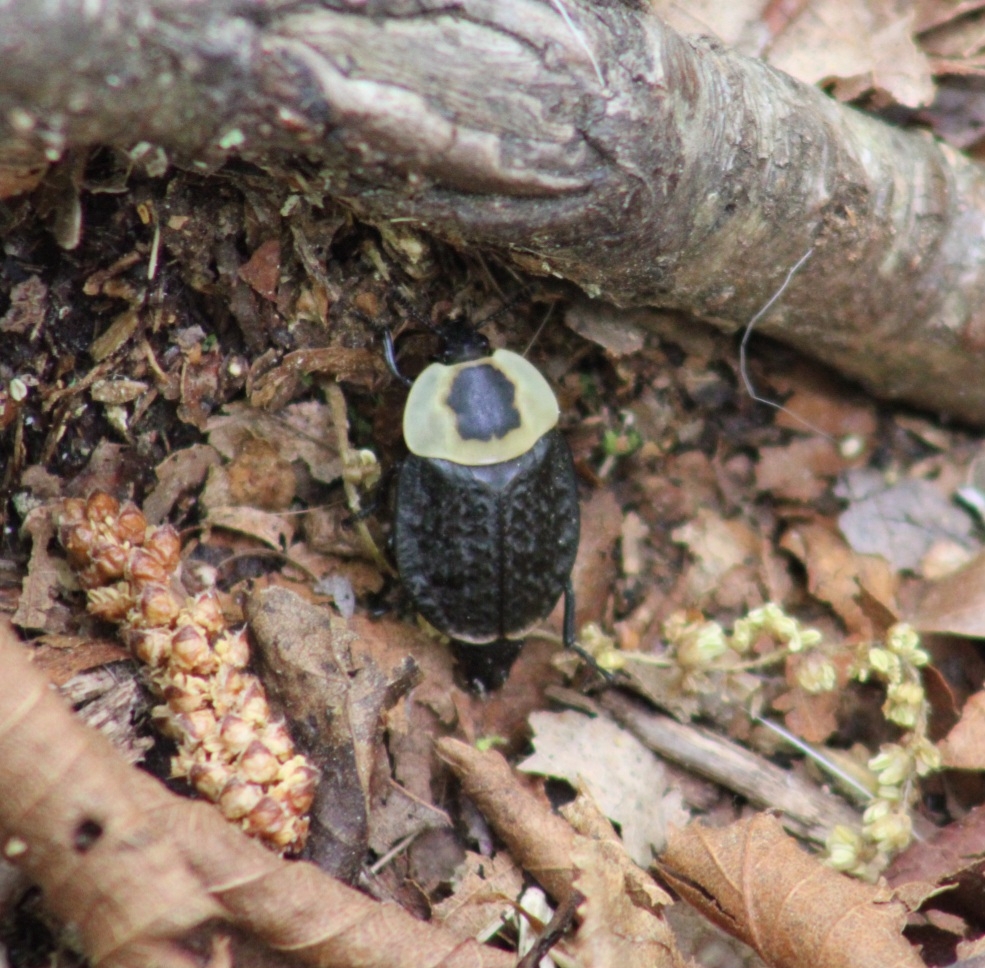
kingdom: Animalia
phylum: Arthropoda
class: Insecta
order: Coleoptera
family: Staphylinidae
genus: Necrophila
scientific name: Necrophila americana
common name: American carrion beetle
